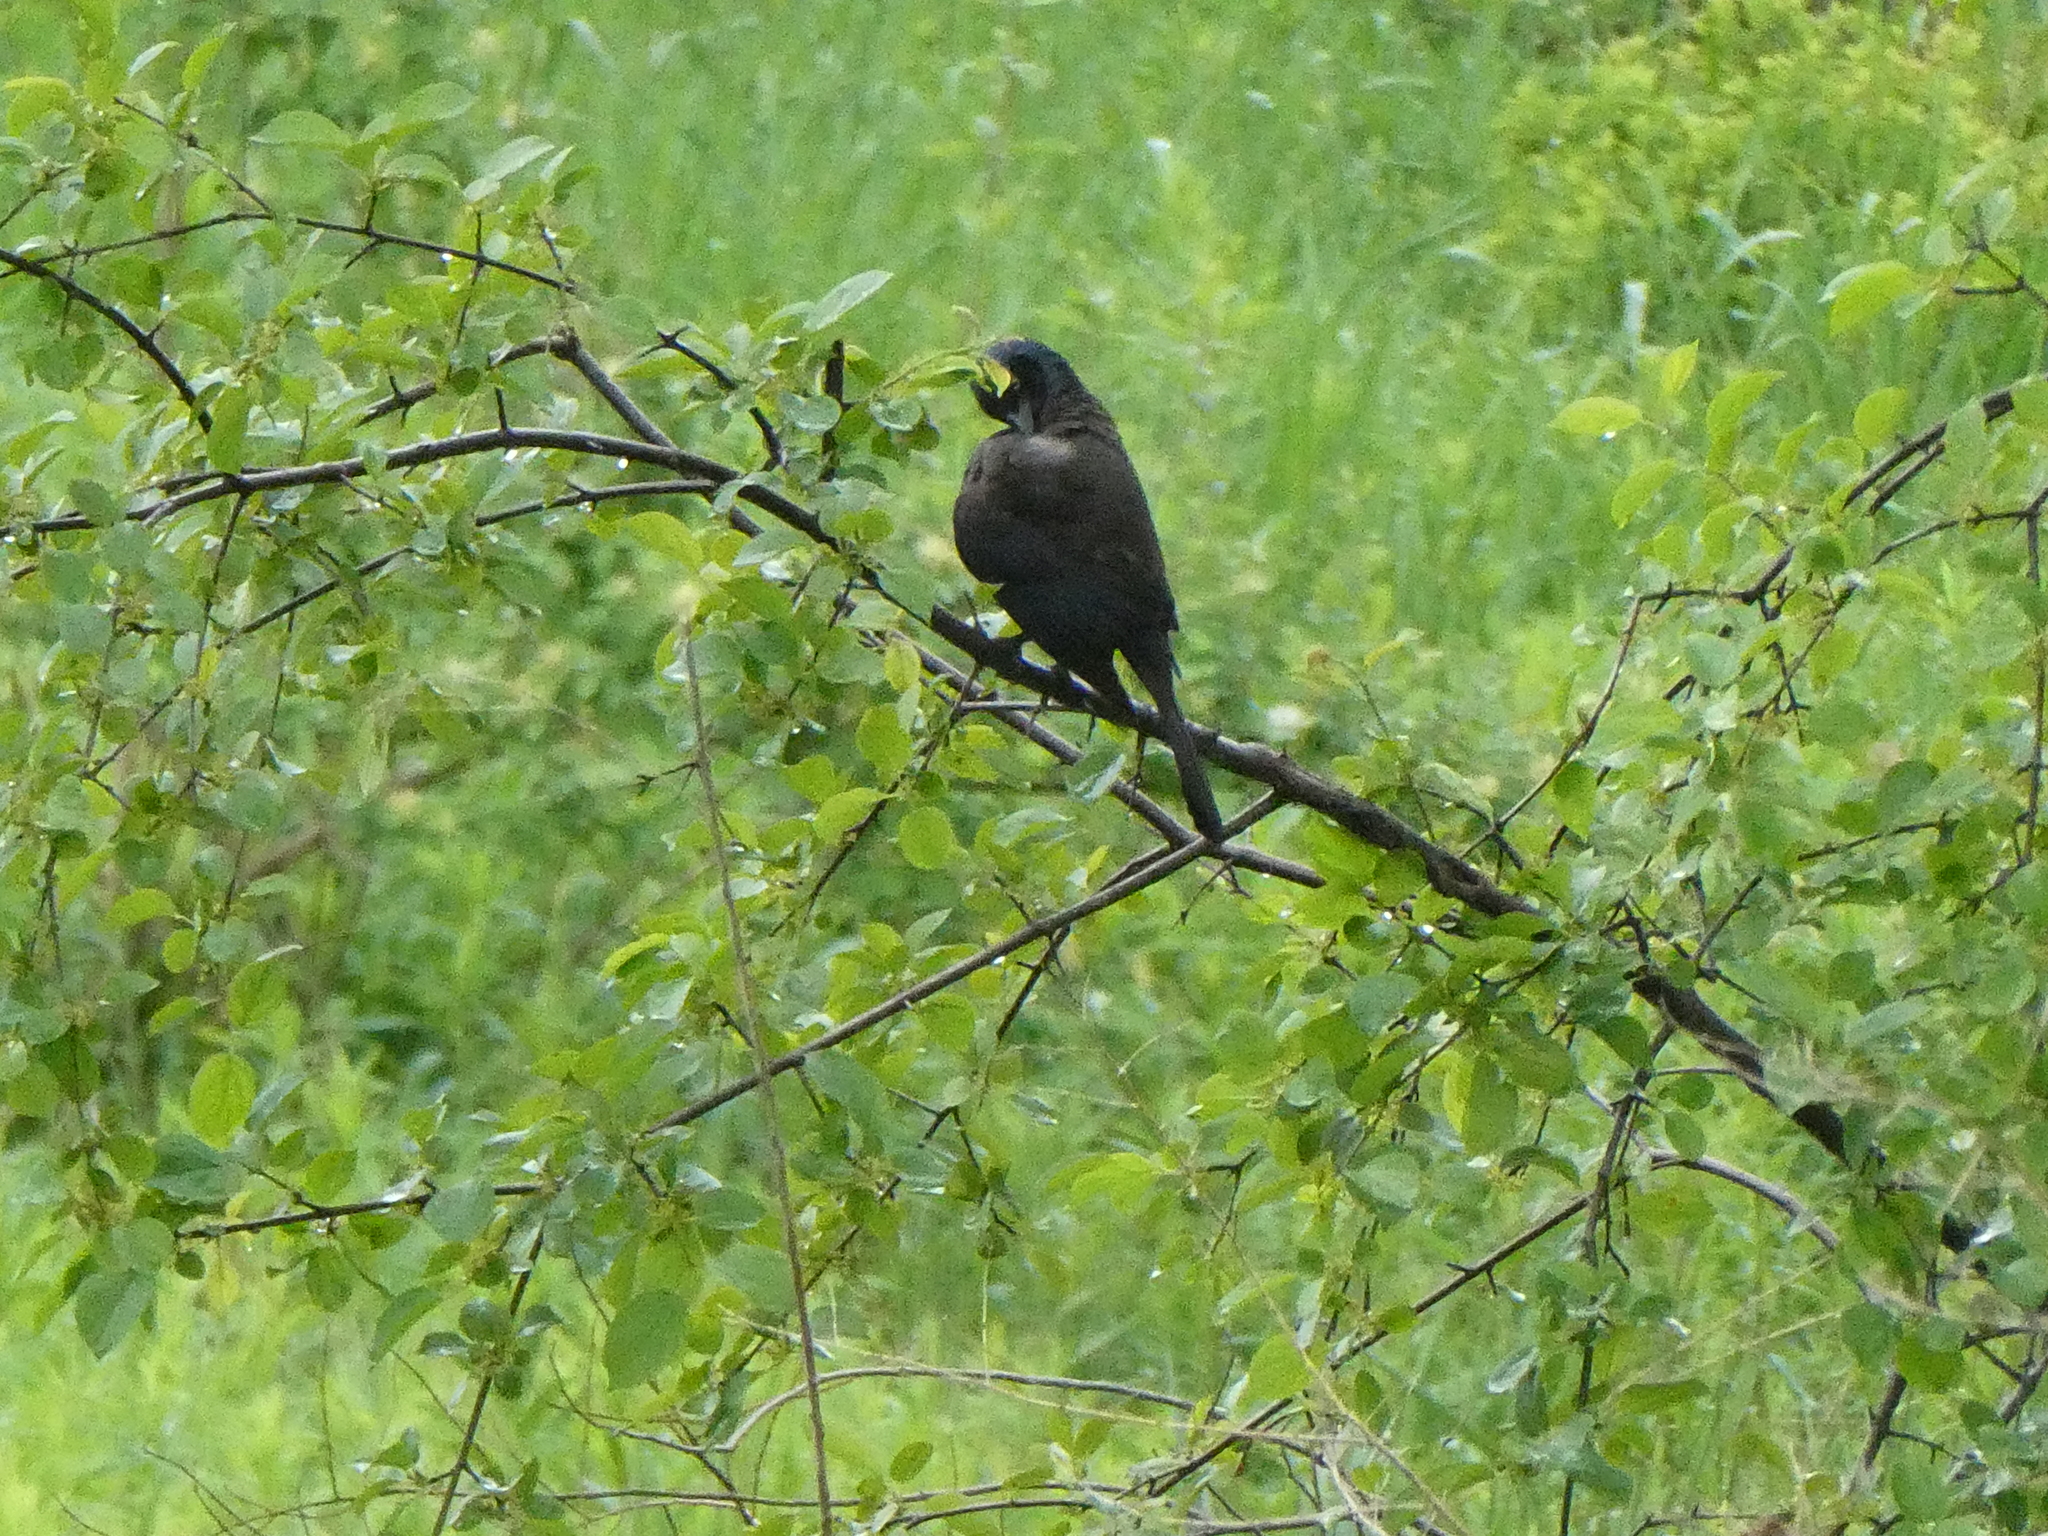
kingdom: Animalia
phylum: Chordata
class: Aves
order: Passeriformes
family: Icteridae
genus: Quiscalus
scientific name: Quiscalus quiscula
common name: Common grackle
